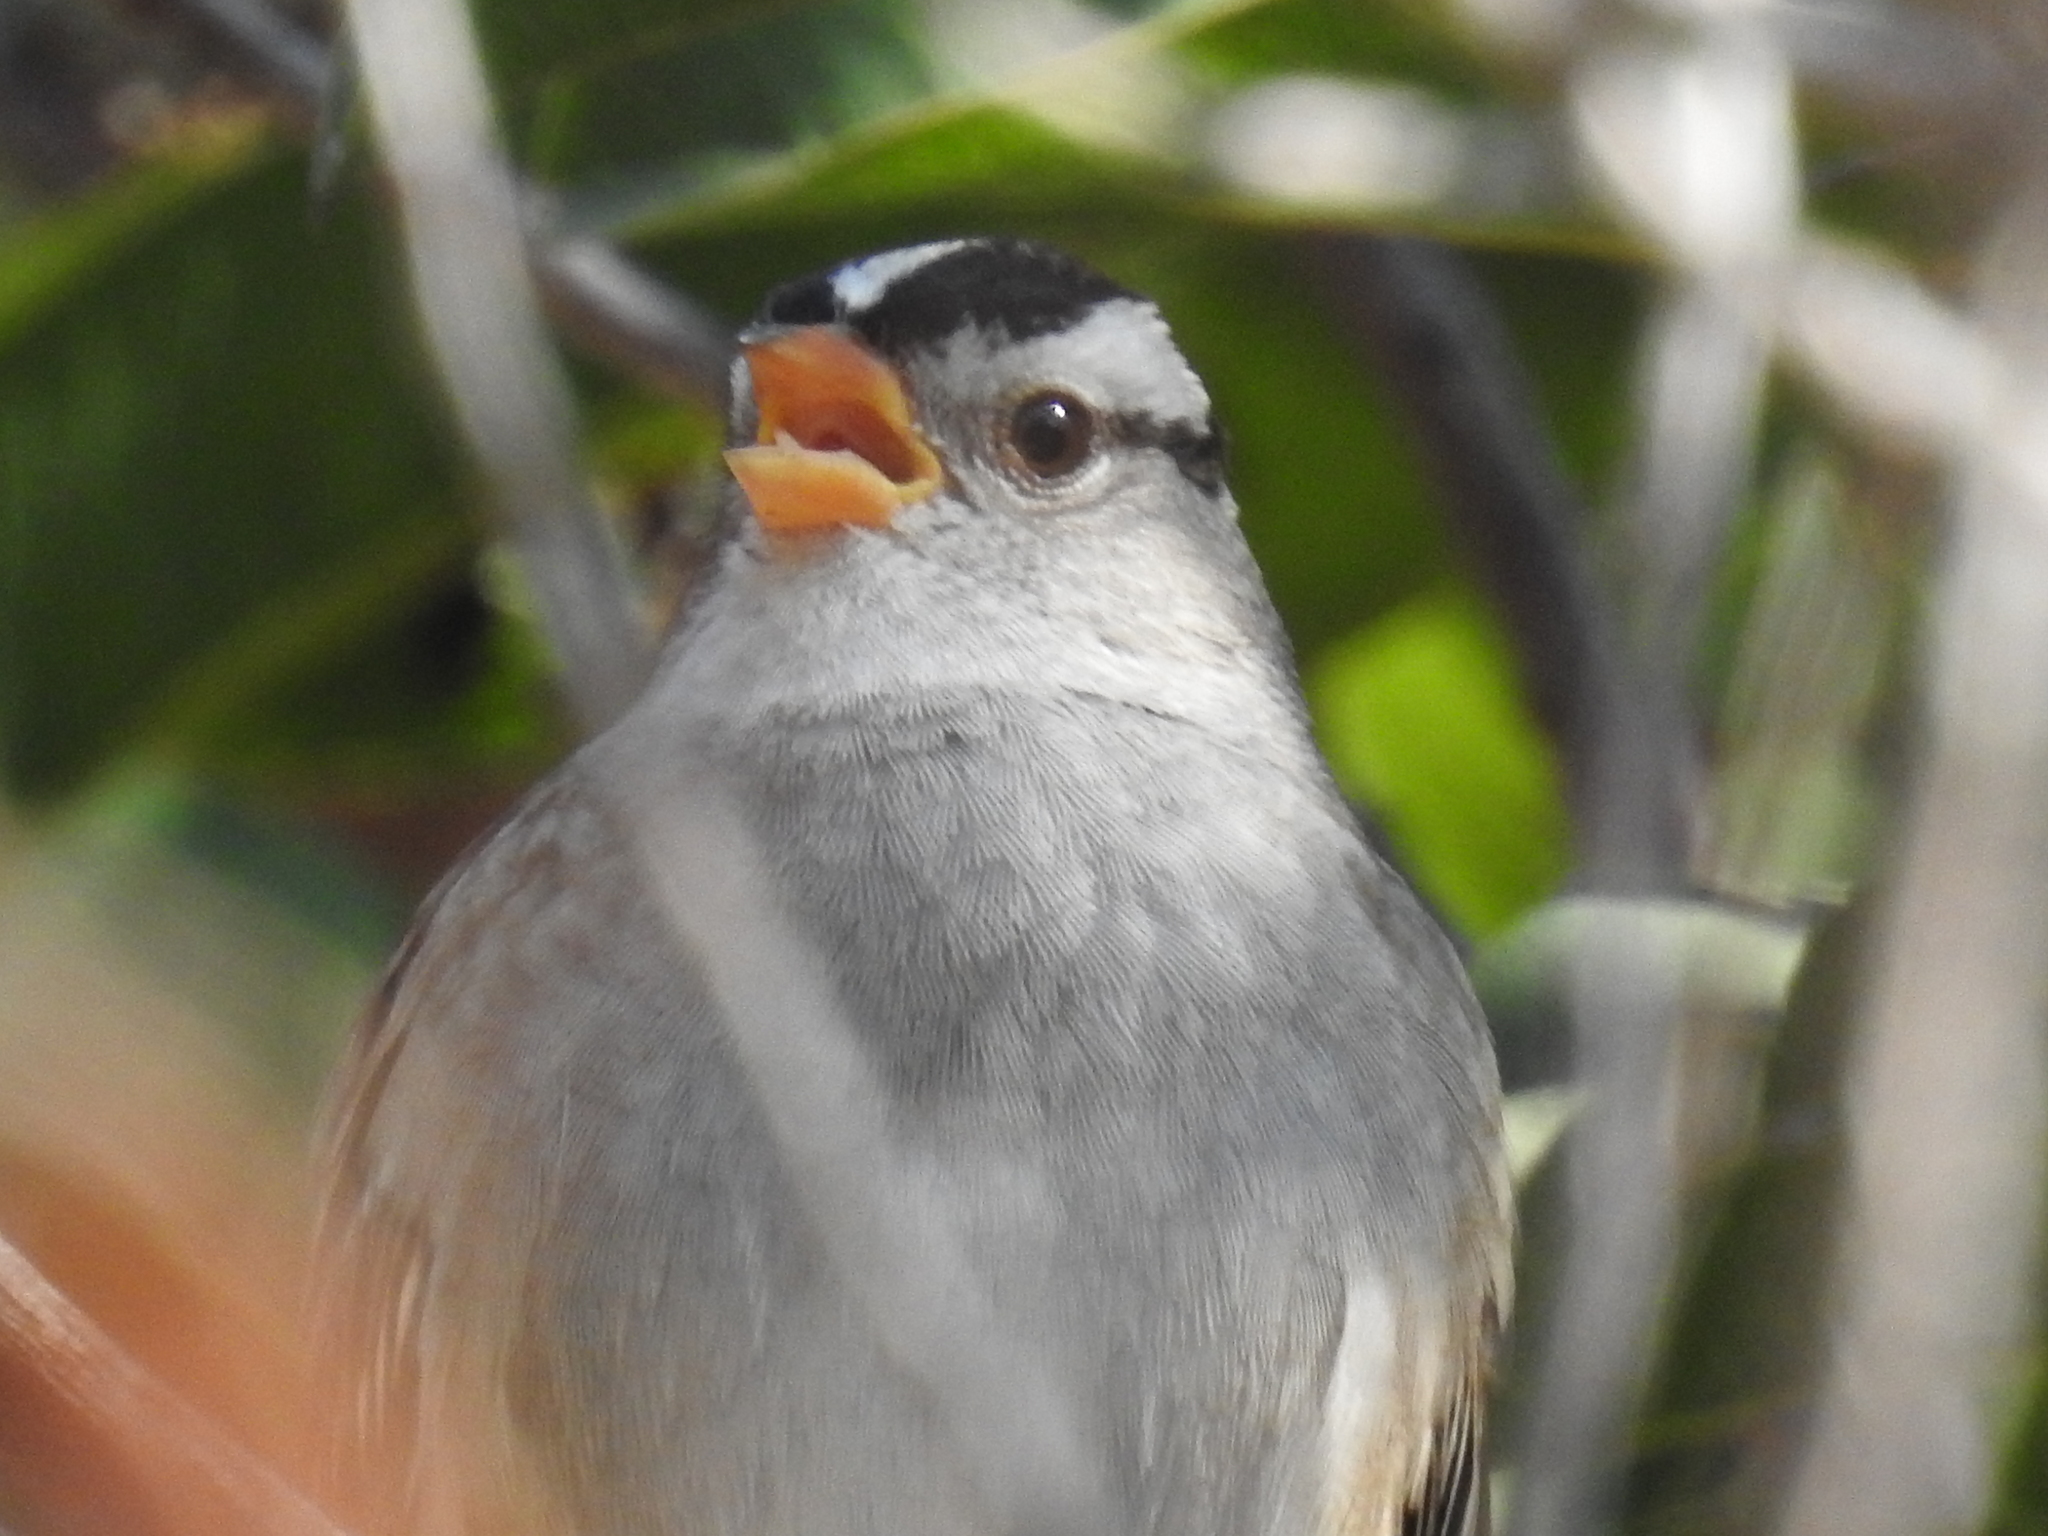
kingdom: Animalia
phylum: Chordata
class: Aves
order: Passeriformes
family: Passerellidae
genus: Zonotrichia
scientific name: Zonotrichia leucophrys
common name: White-crowned sparrow
